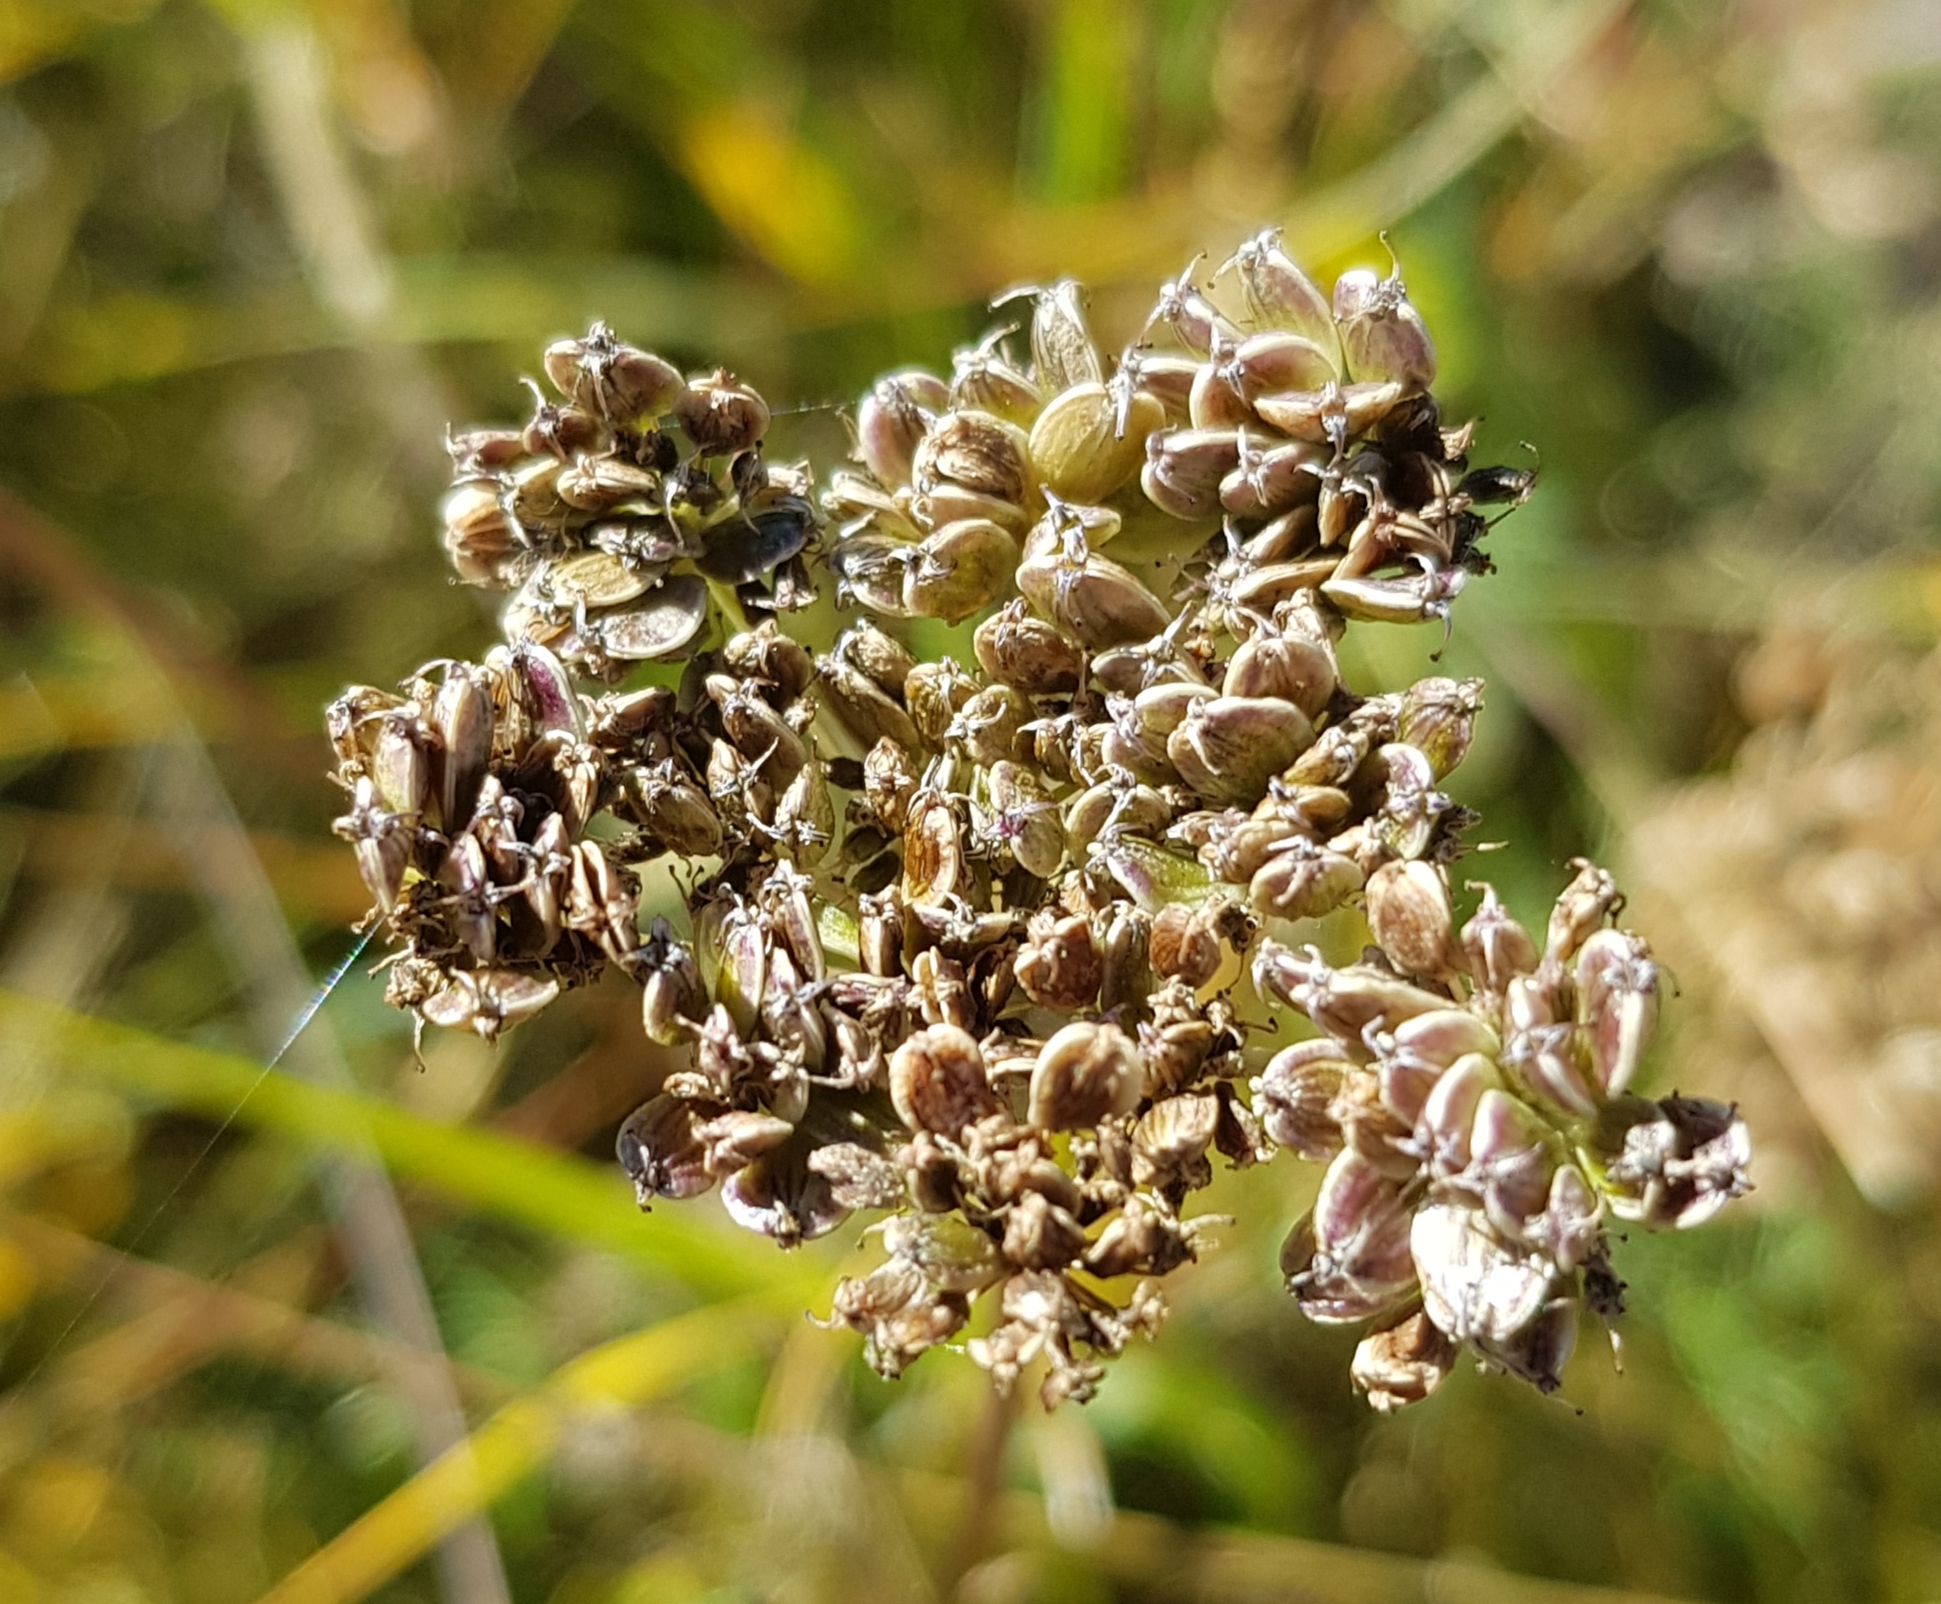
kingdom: Plantae
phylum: Tracheophyta
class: Magnoliopsida
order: Apiales
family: Apiaceae
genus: Kitagawia
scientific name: Kitagawia baicalensis
